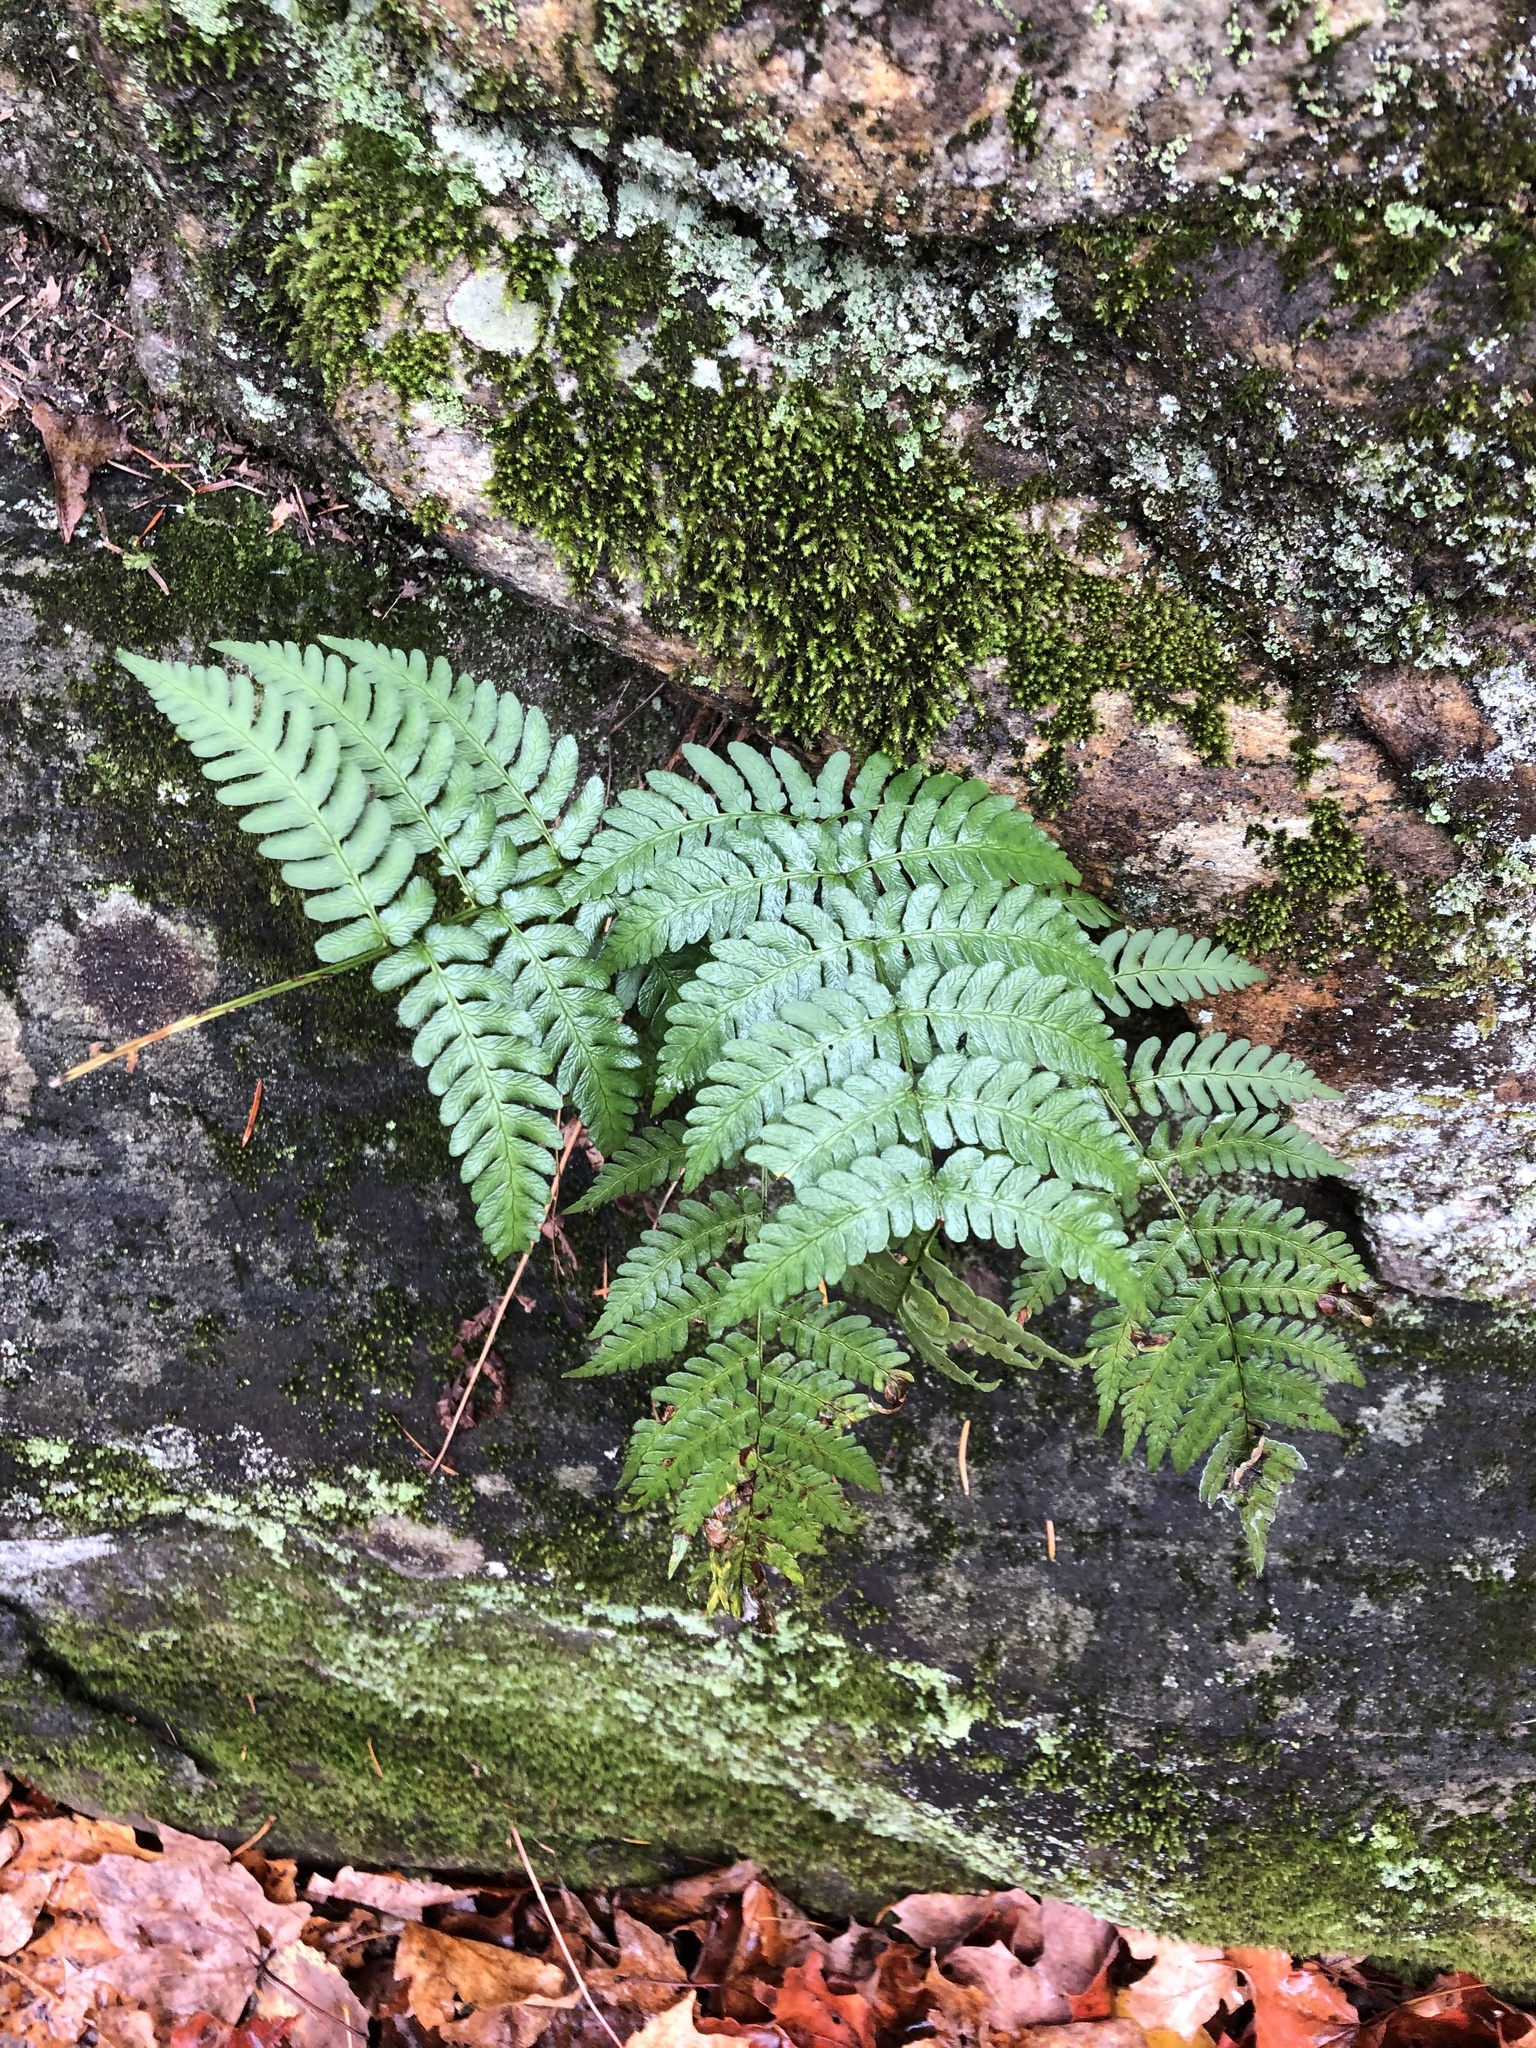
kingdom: Plantae
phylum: Tracheophyta
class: Polypodiopsida
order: Polypodiales
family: Dryopteridaceae
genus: Dryopteris
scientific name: Dryopteris marginalis
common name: Marginal wood fern
